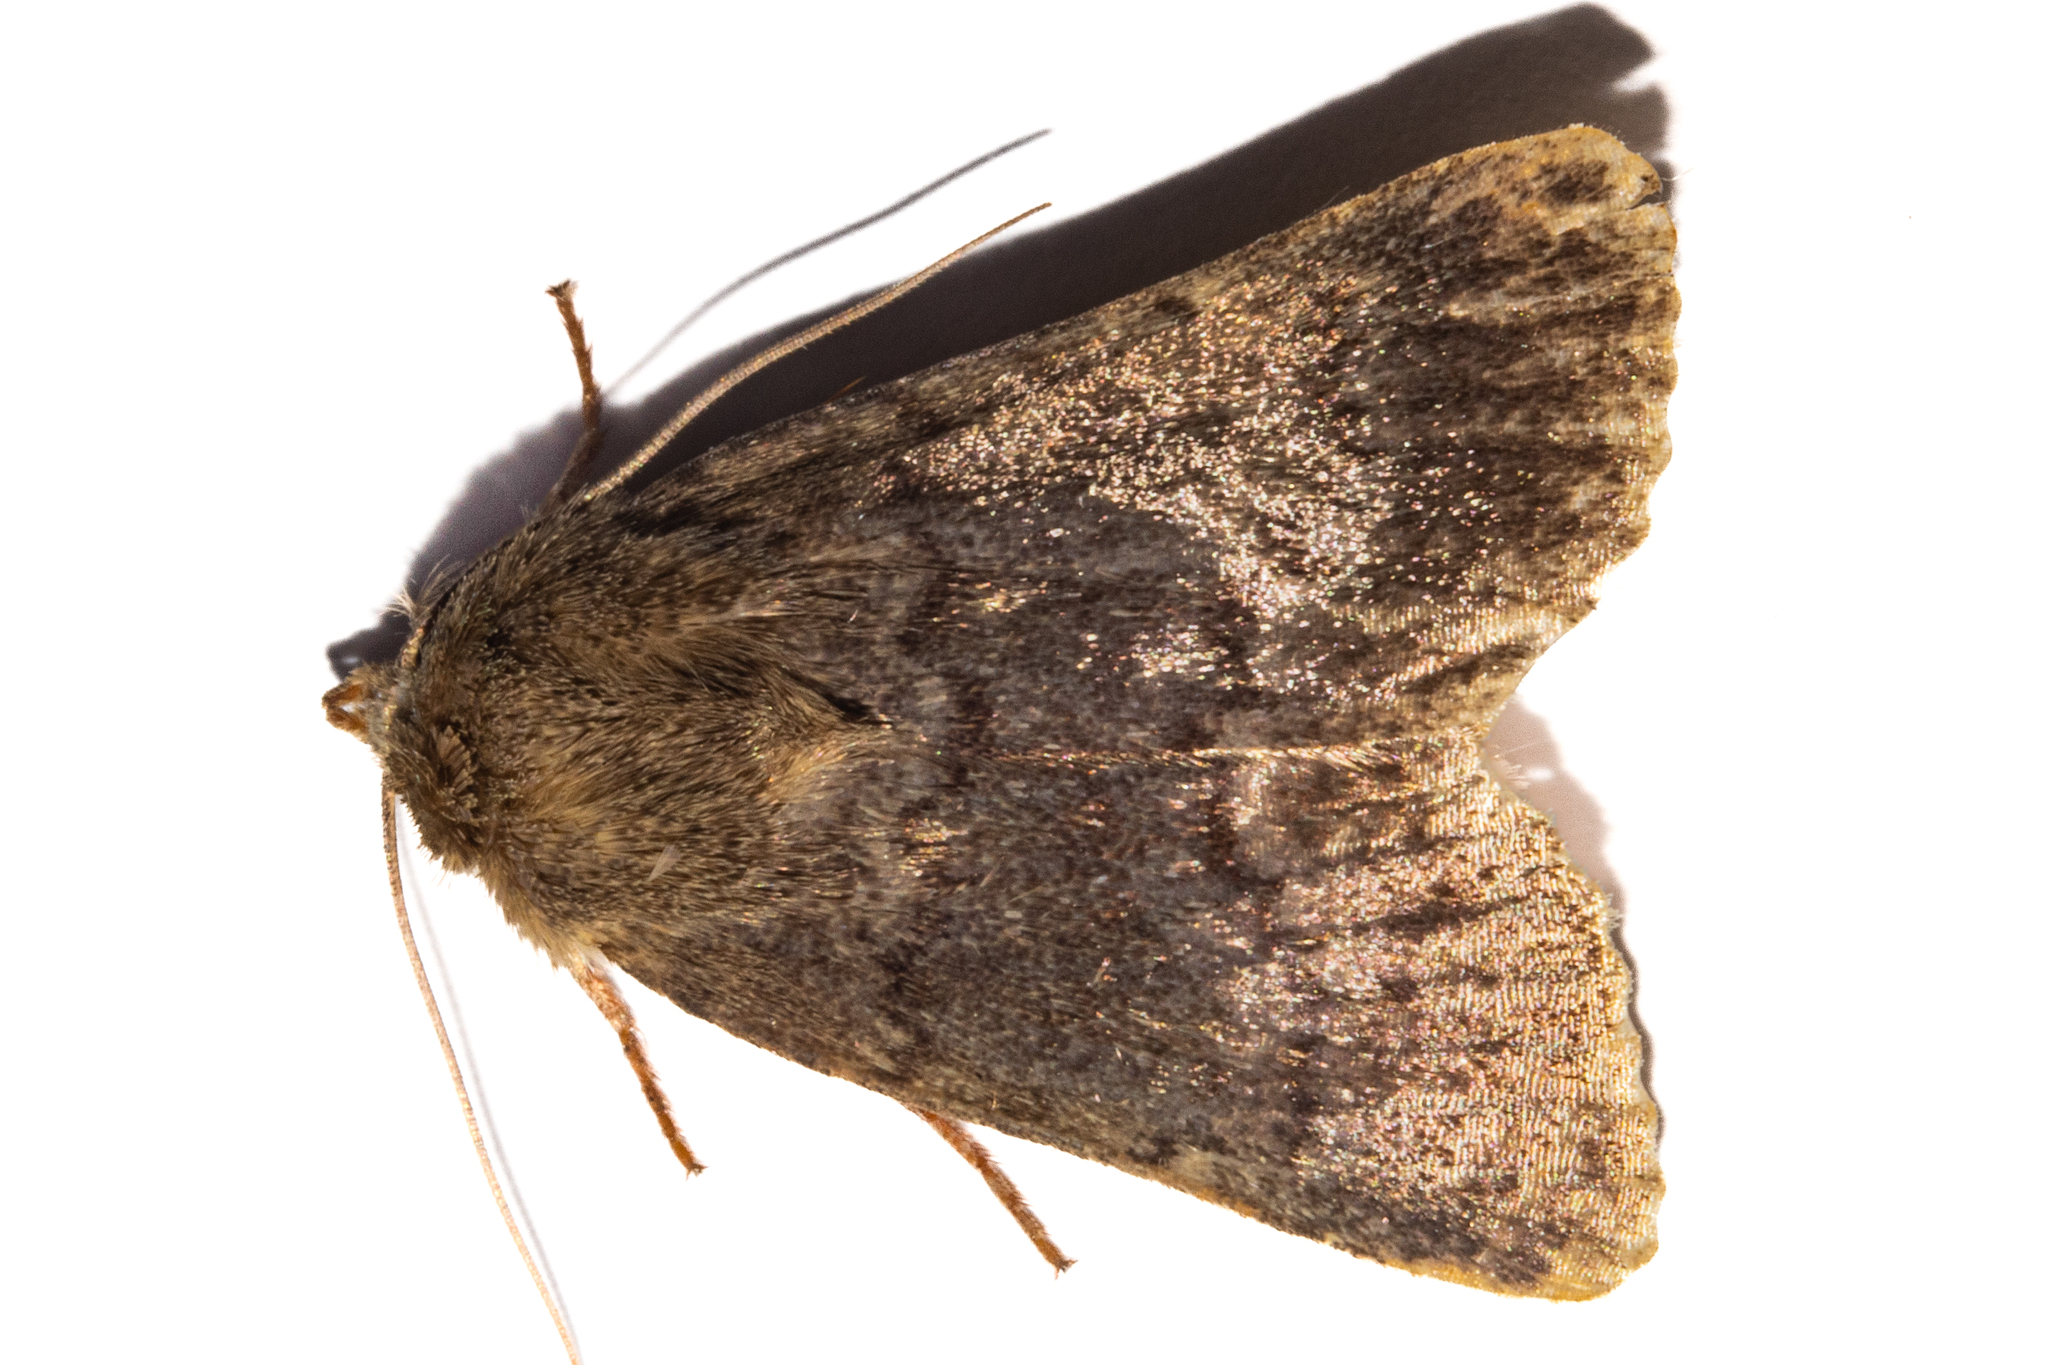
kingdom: Animalia
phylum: Arthropoda
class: Insecta
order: Lepidoptera
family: Noctuidae
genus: Bityla
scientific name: Bityla sericea
